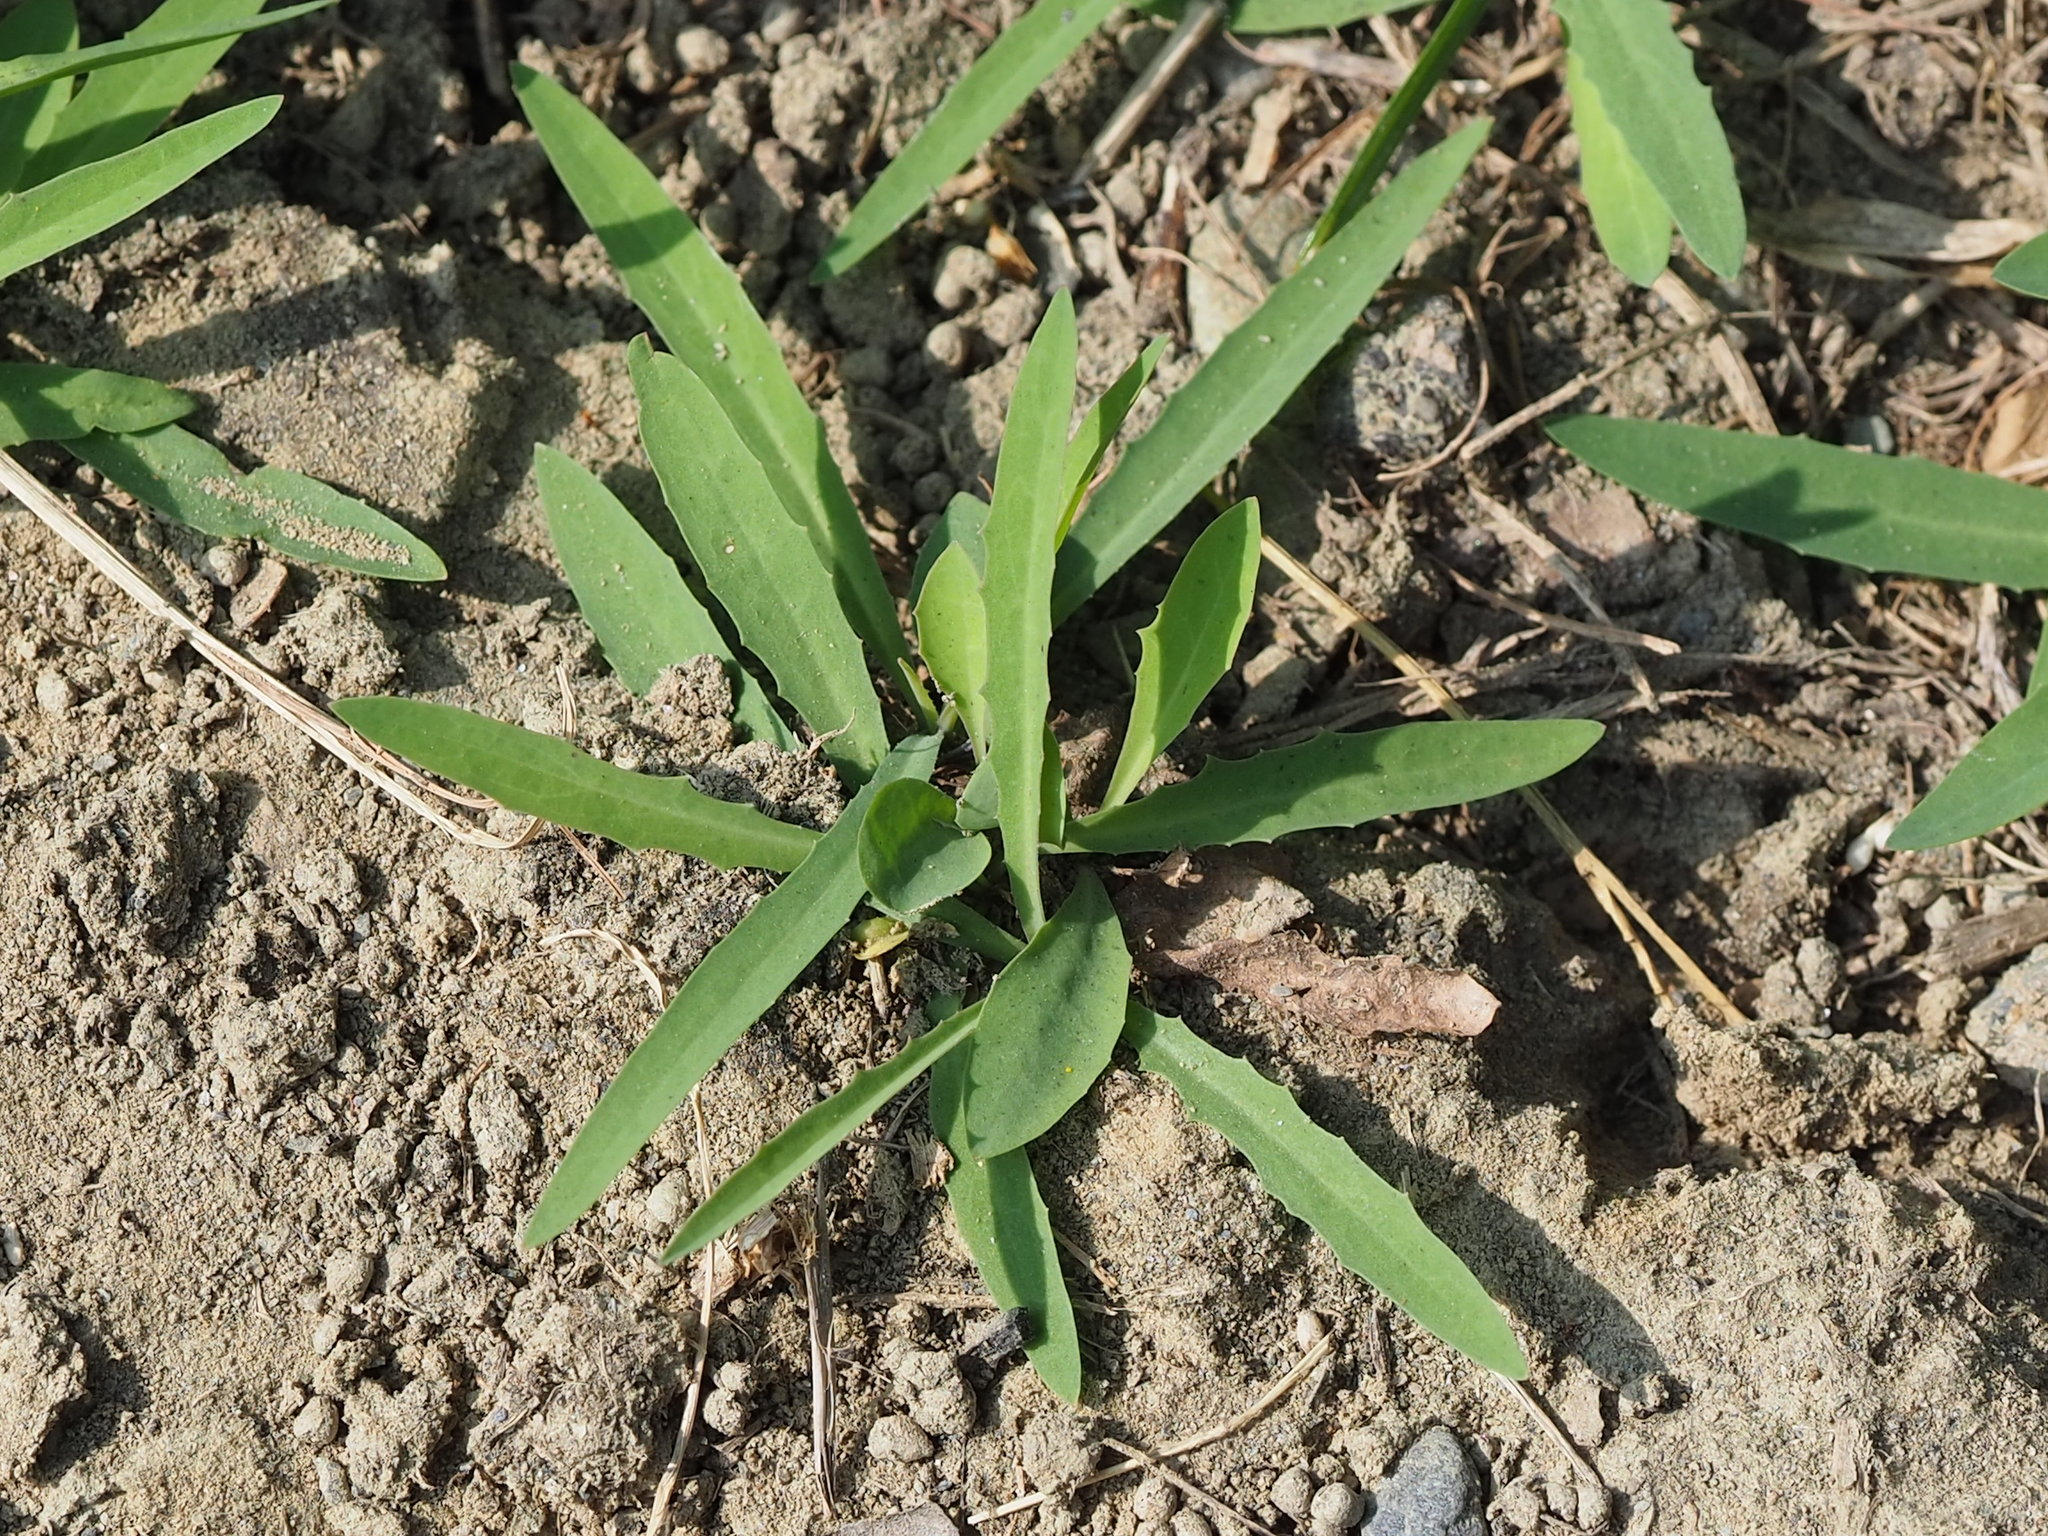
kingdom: Plantae
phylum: Tracheophyta
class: Magnoliopsida
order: Asterales
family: Asteraceae
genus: Ixeris
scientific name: Ixeris chinensis
